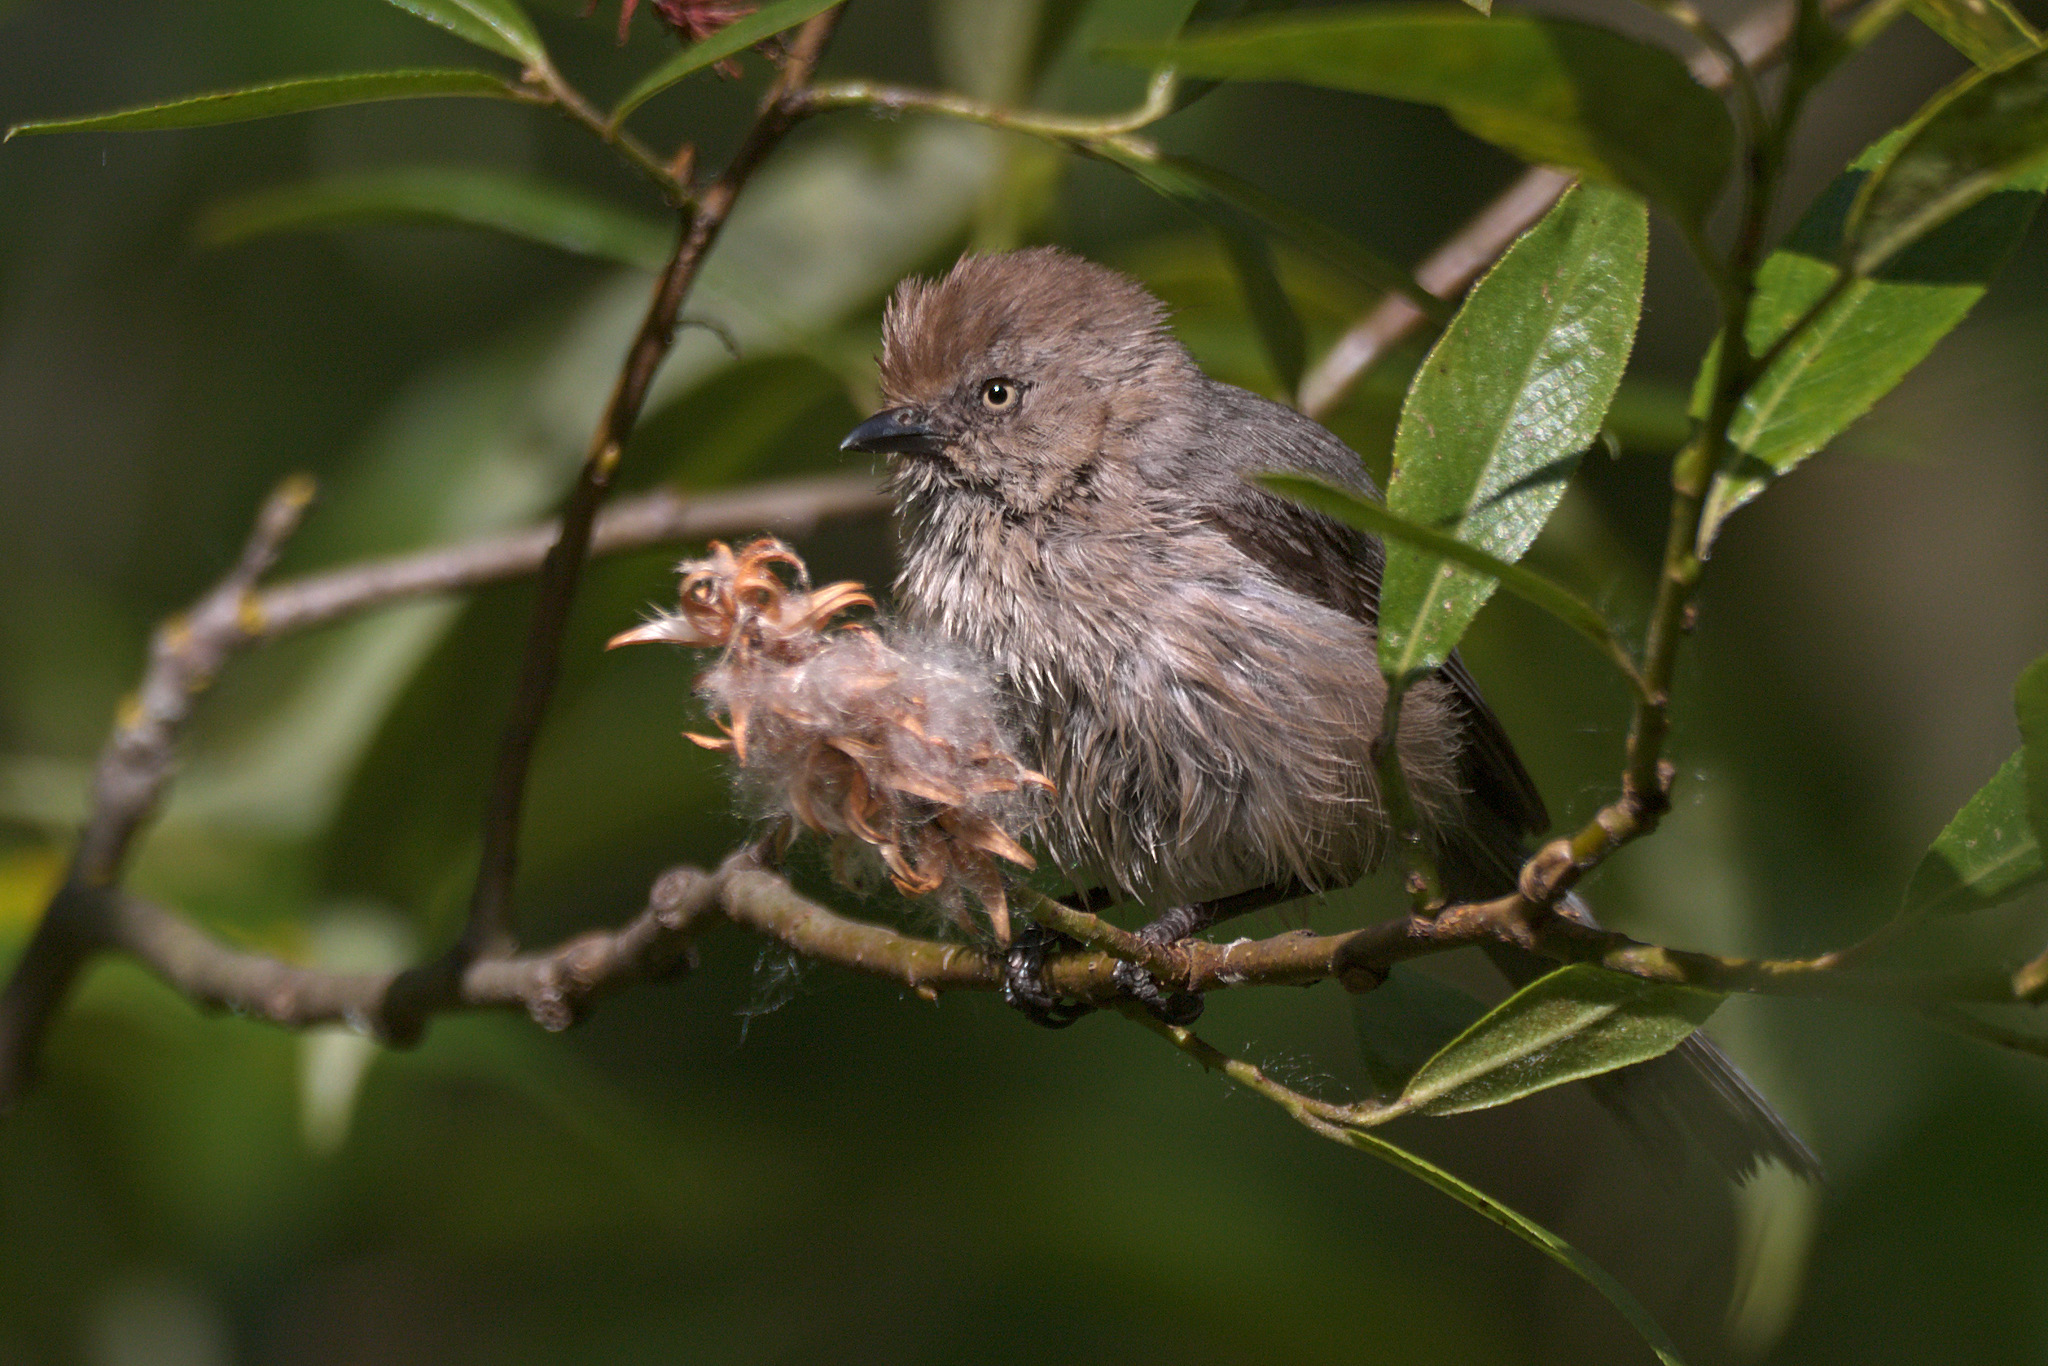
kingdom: Animalia
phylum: Chordata
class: Aves
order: Passeriformes
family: Aegithalidae
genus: Psaltriparus
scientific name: Psaltriparus minimus
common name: American bushtit
